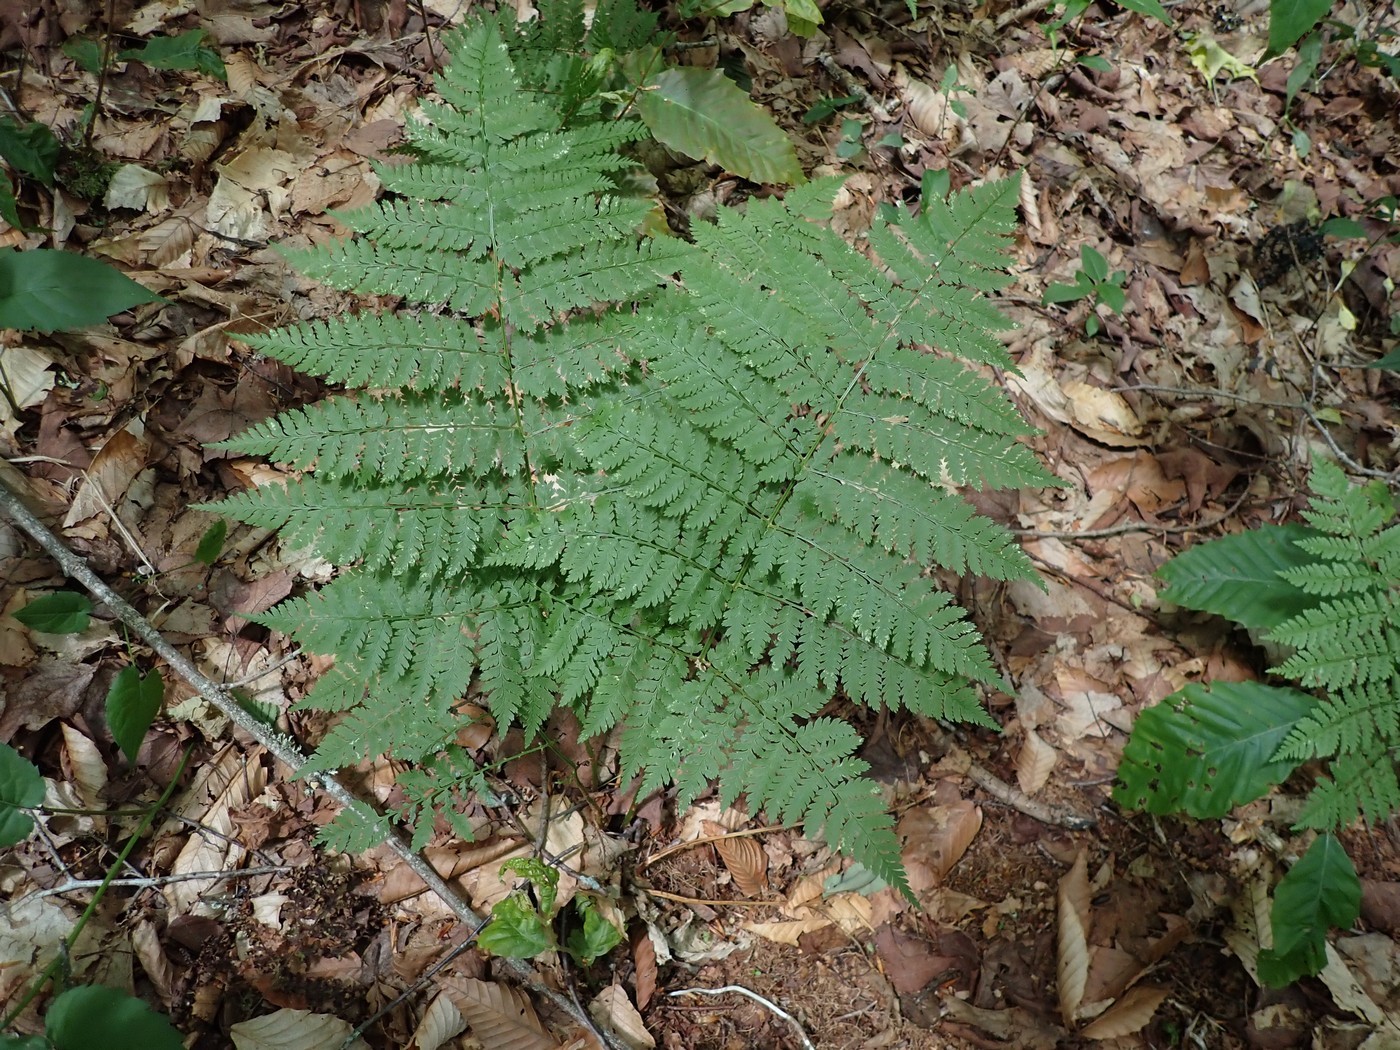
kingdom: Plantae
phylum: Tracheophyta
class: Polypodiopsida
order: Polypodiales
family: Dryopteridaceae
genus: Dryopteris
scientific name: Dryopteris campyloptera
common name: Mountain wood fern
